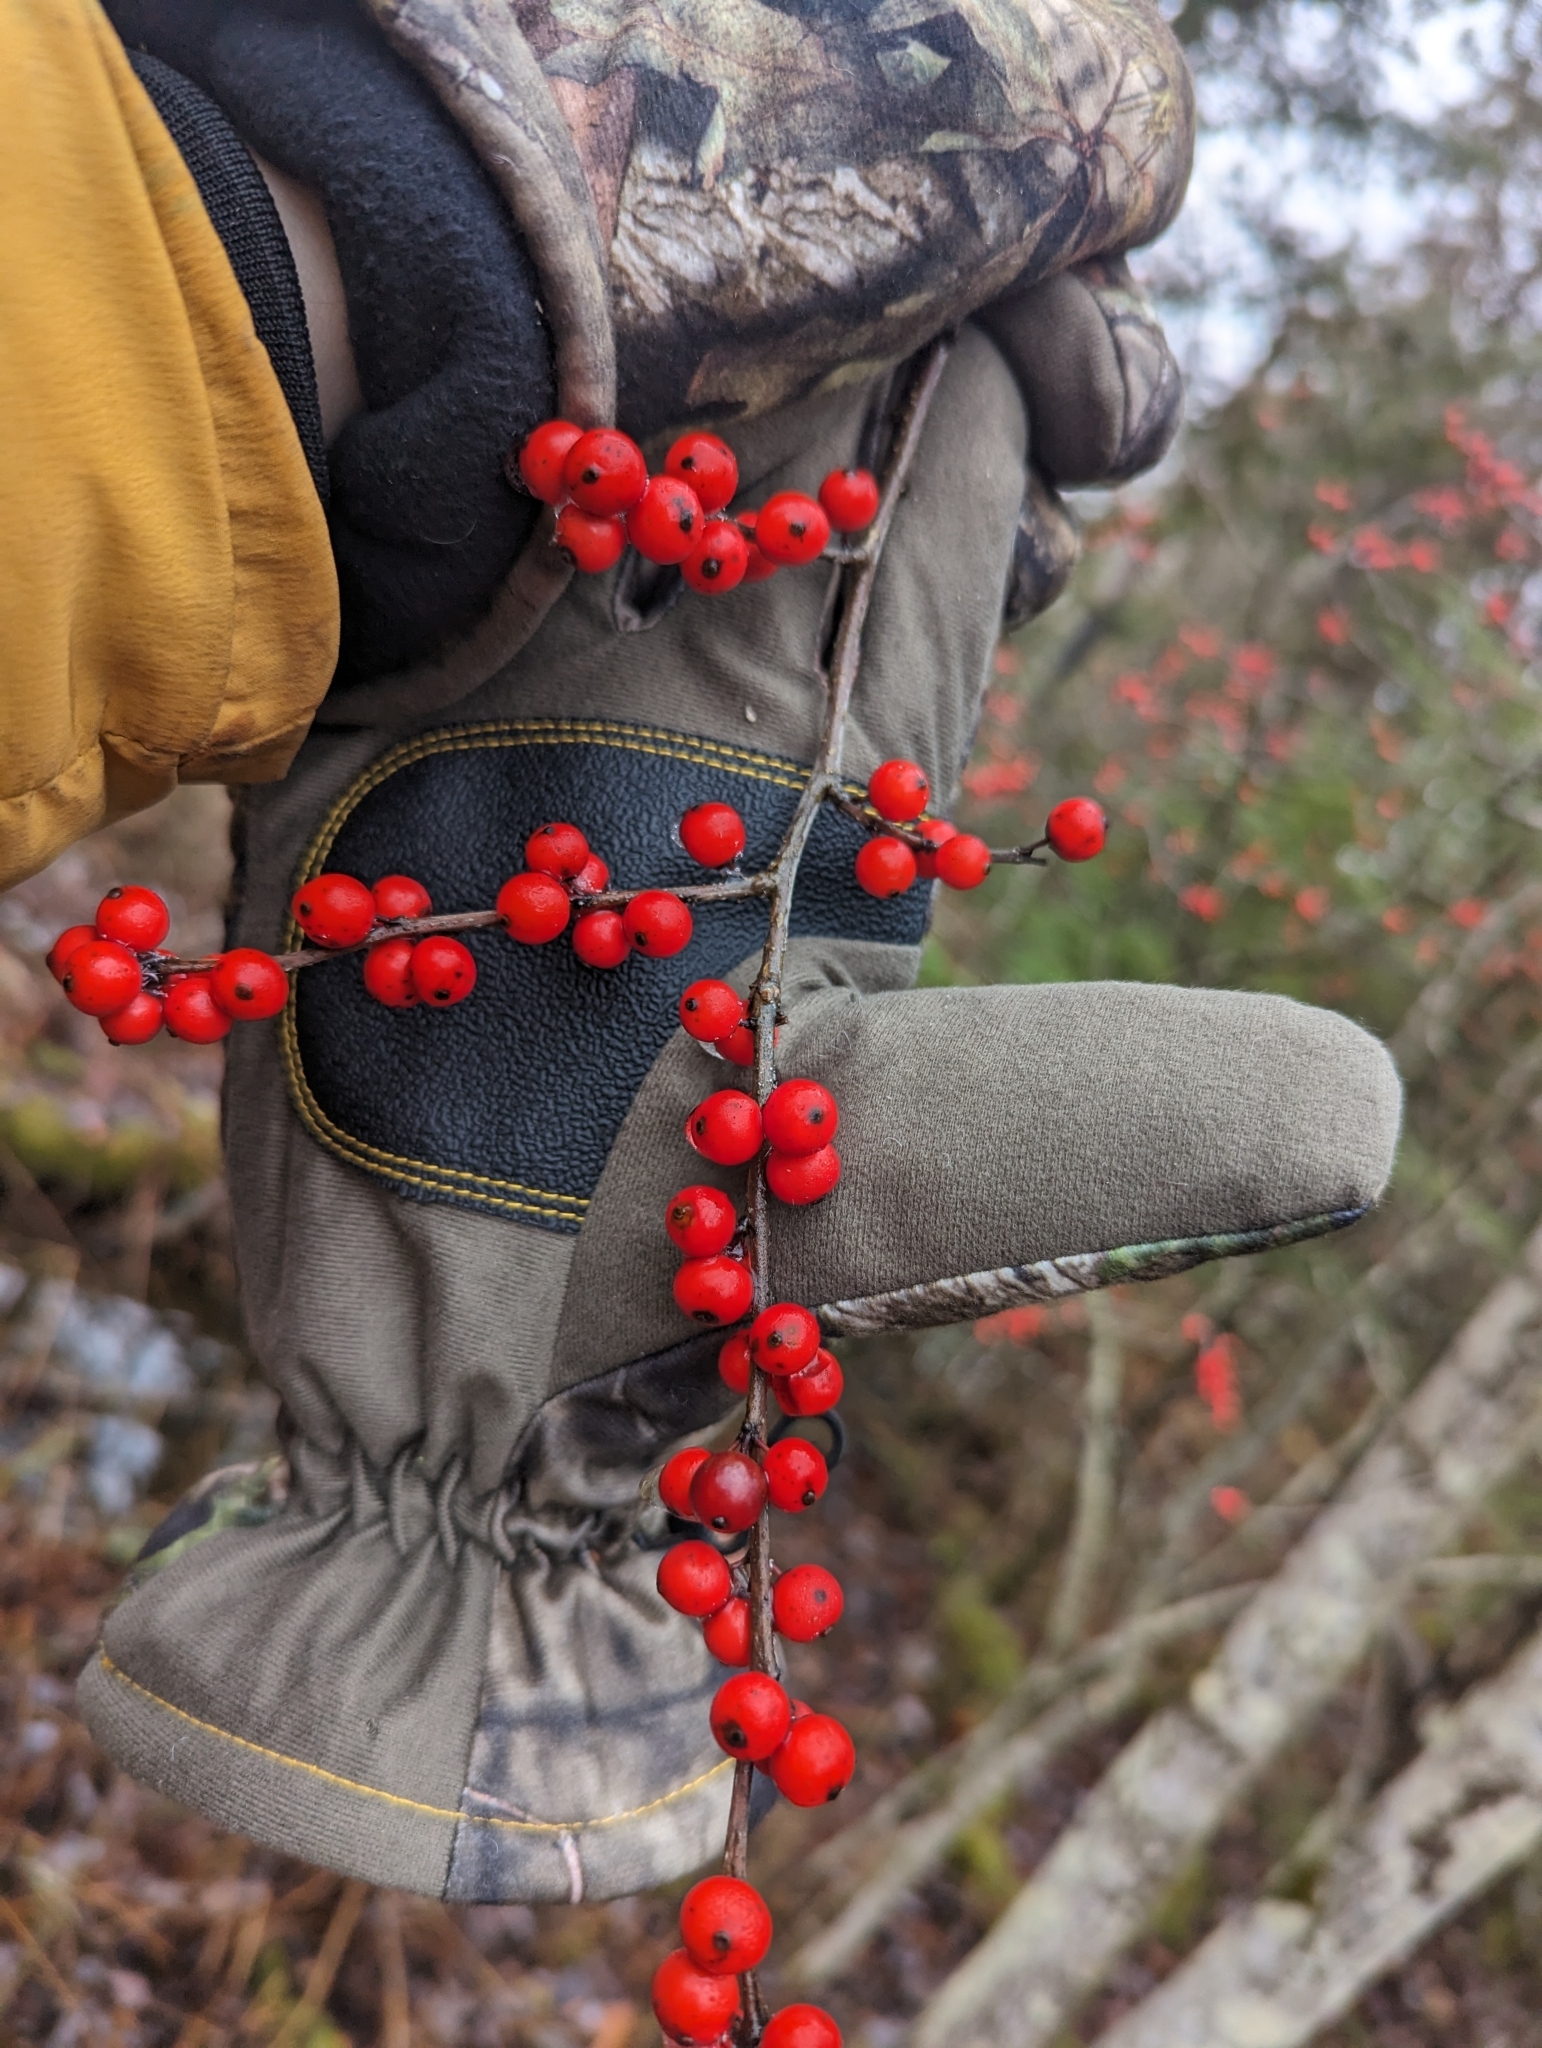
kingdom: Plantae
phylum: Tracheophyta
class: Magnoliopsida
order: Aquifoliales
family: Aquifoliaceae
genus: Ilex
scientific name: Ilex verticillata
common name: Virginia winterberry
